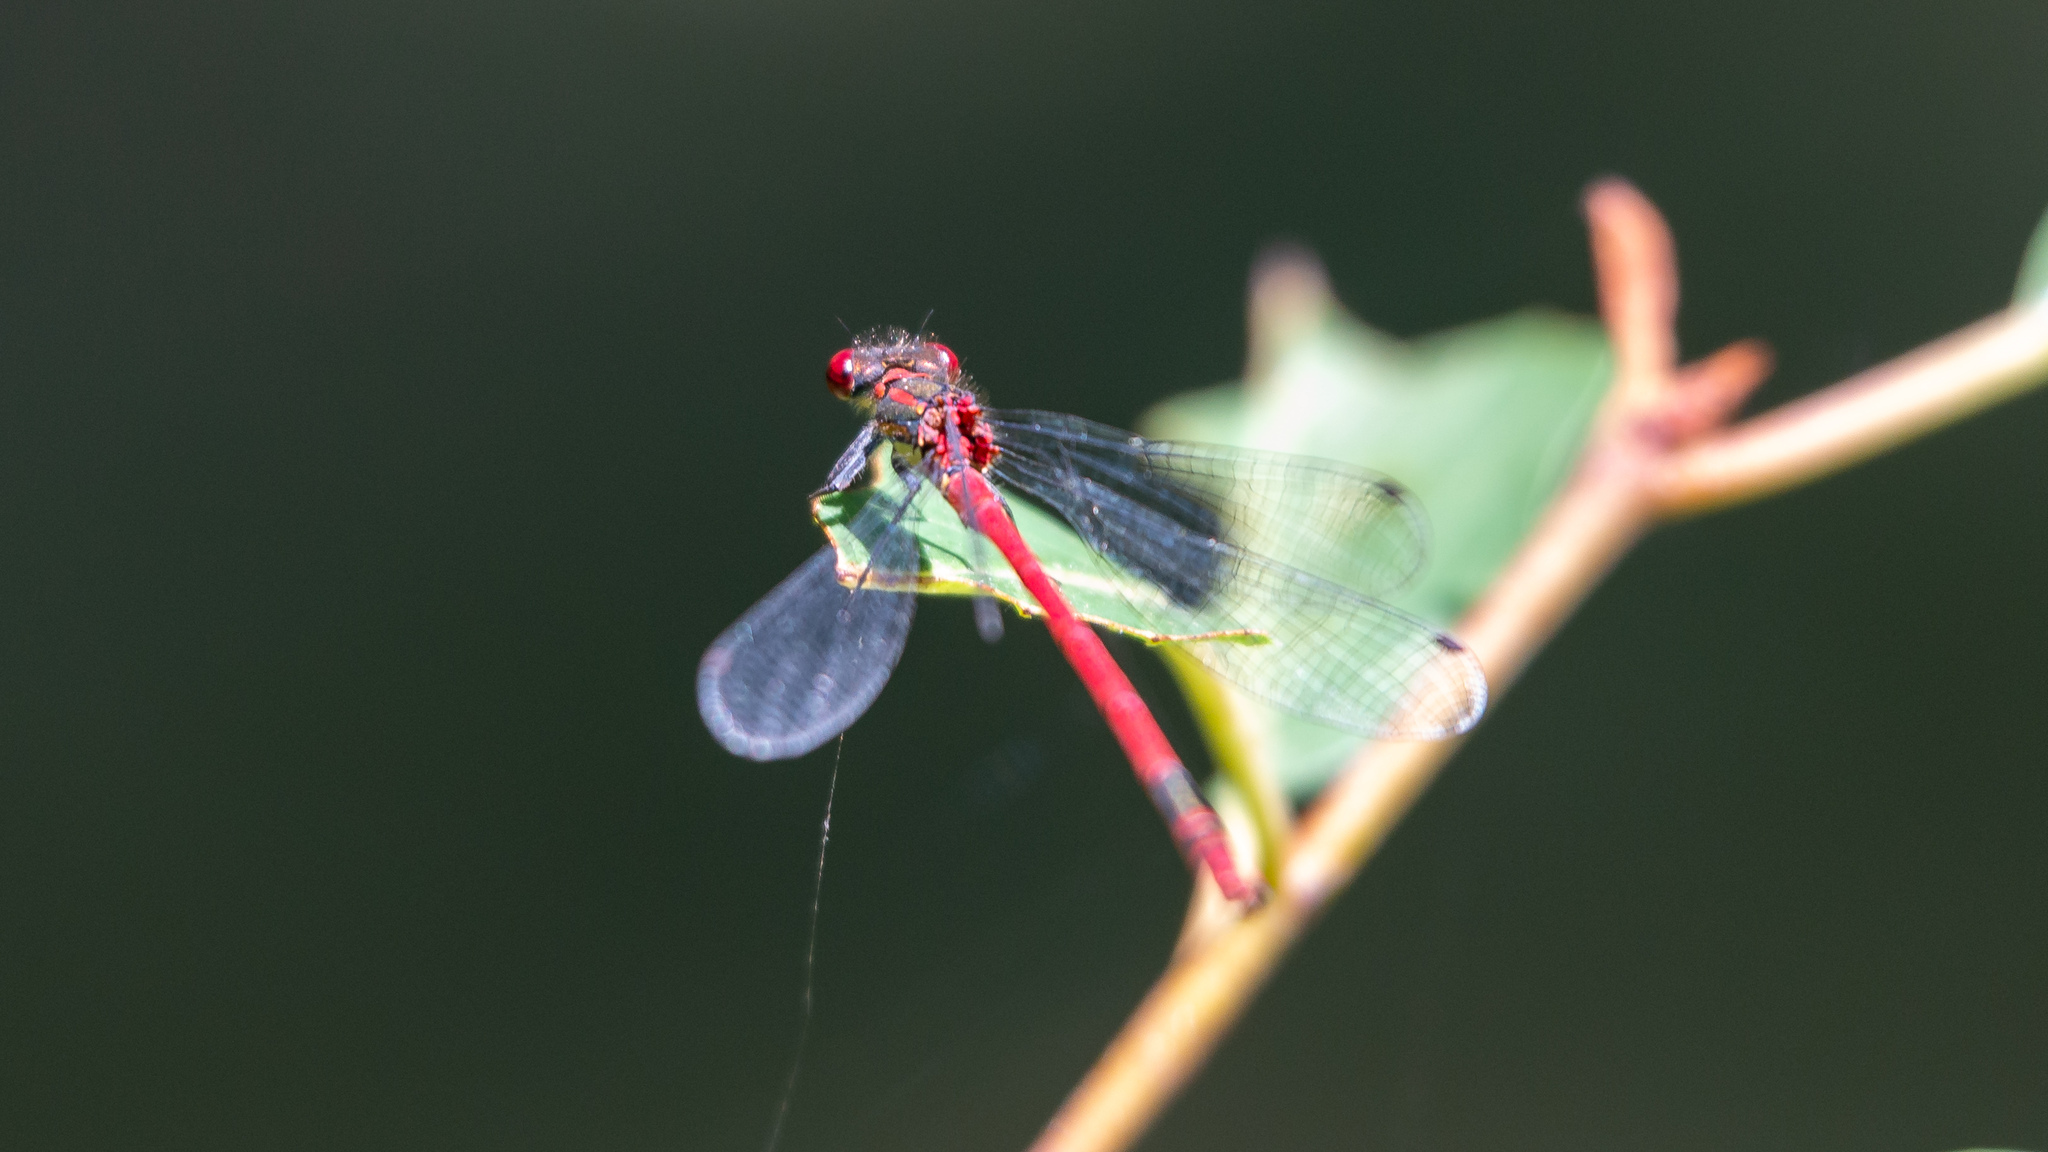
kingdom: Animalia
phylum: Arthropoda
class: Insecta
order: Odonata
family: Coenagrionidae
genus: Pyrrhosoma
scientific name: Pyrrhosoma nymphula
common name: Large red damsel
